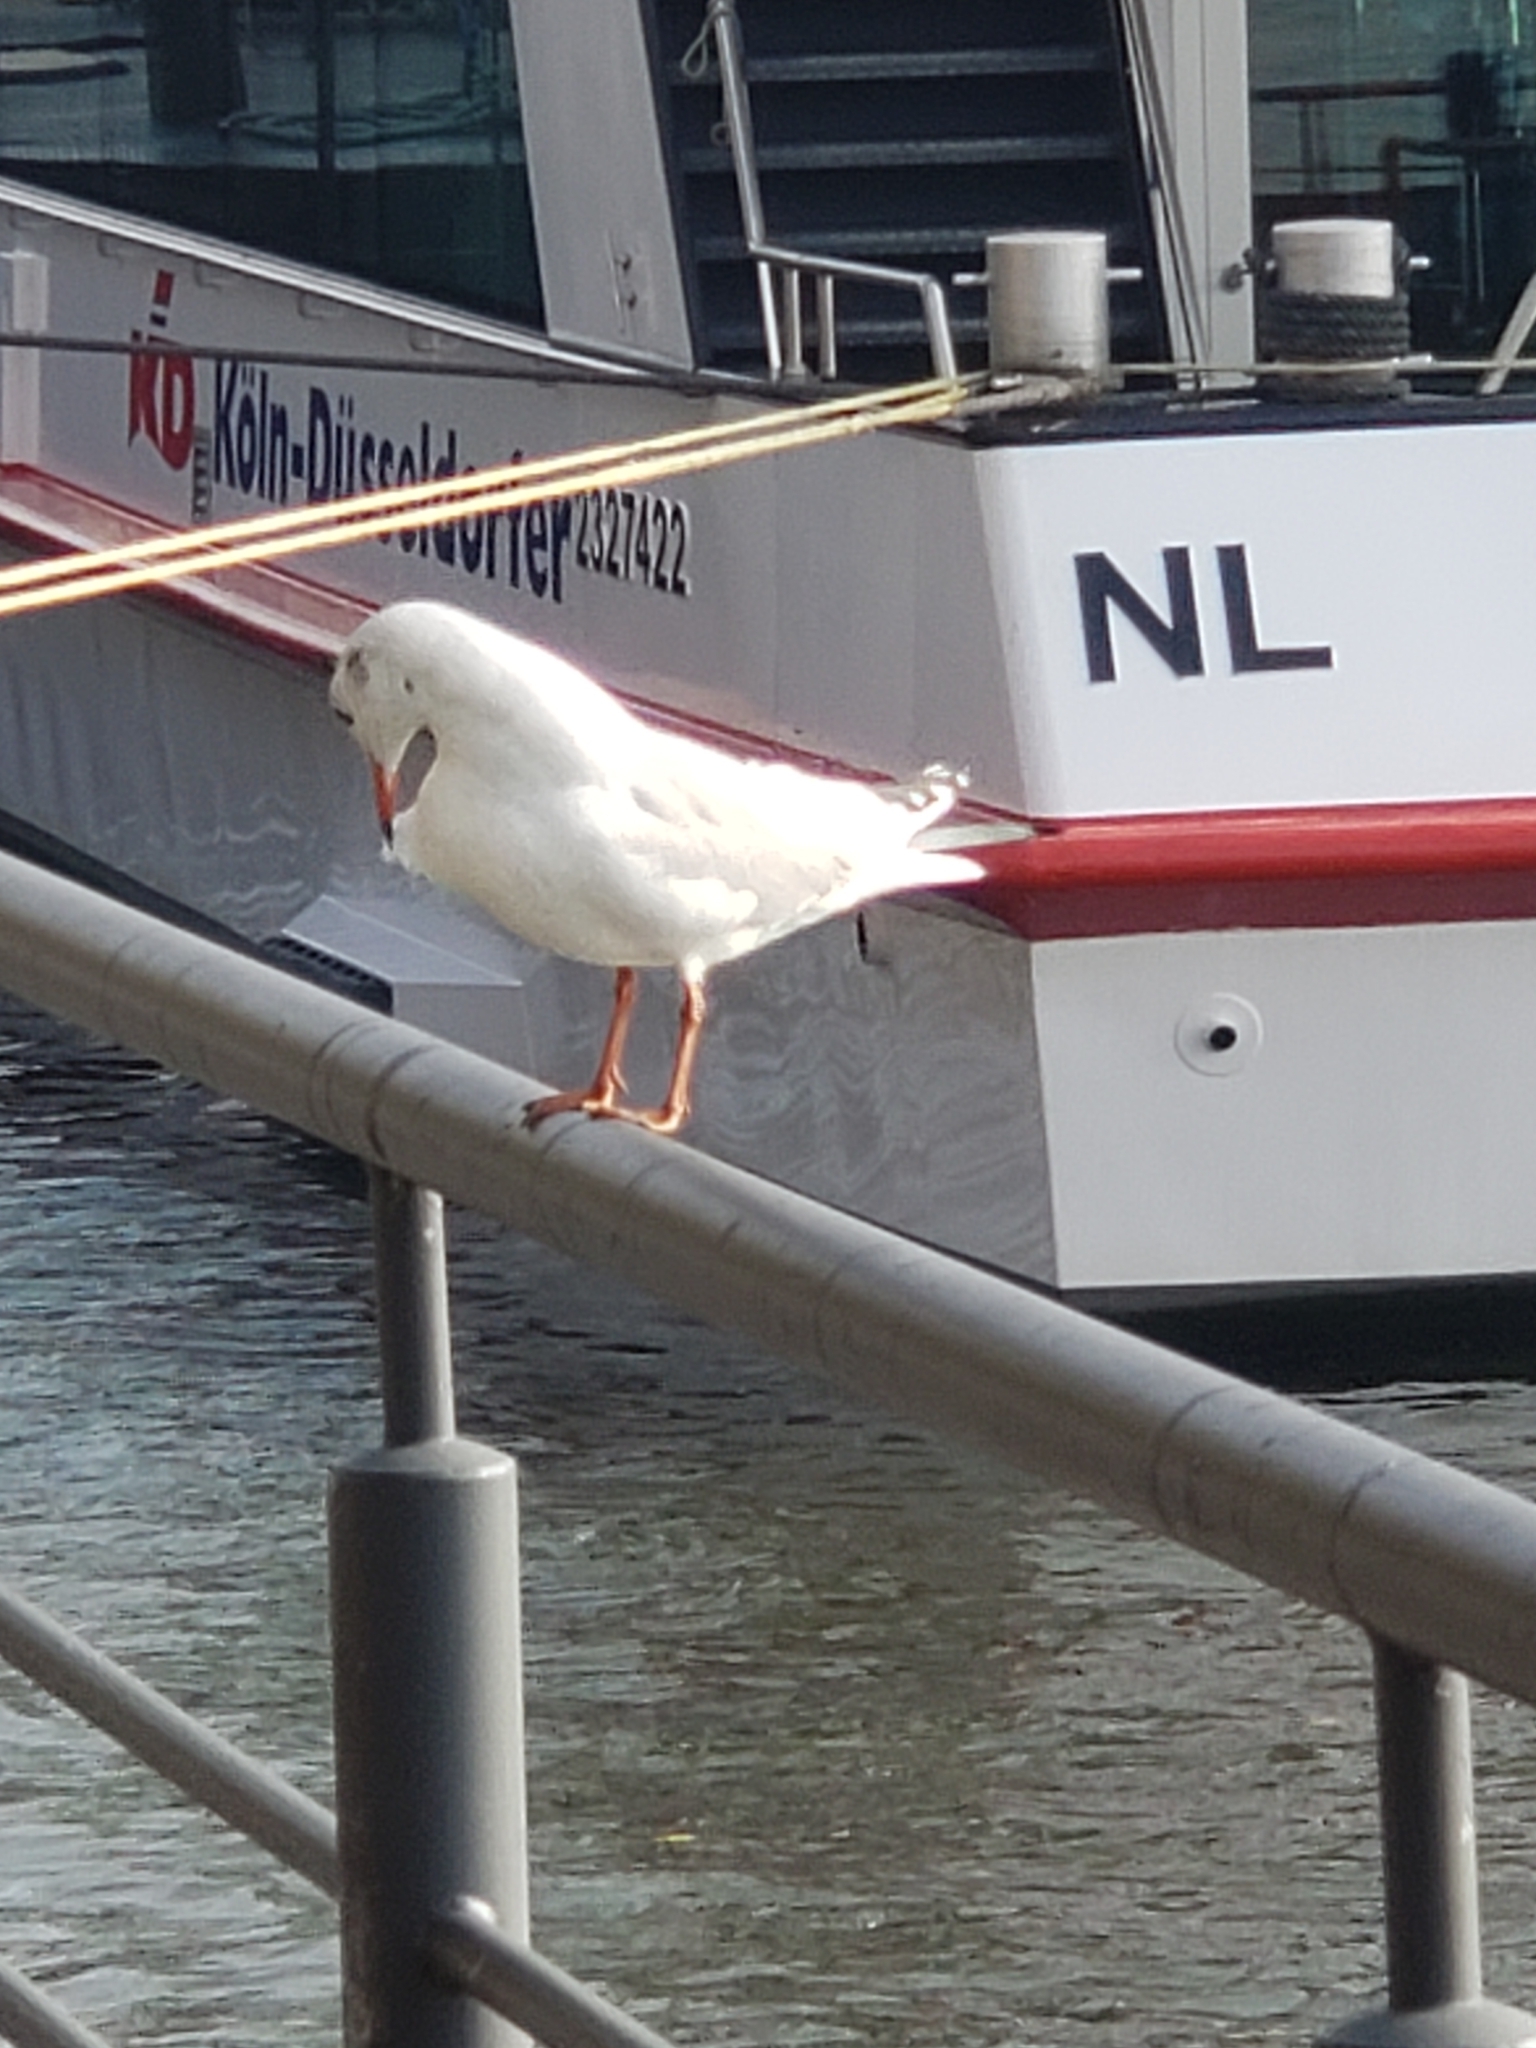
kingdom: Animalia
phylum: Chordata
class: Aves
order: Charadriiformes
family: Laridae
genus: Chroicocephalus
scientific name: Chroicocephalus ridibundus
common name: Black-headed gull
